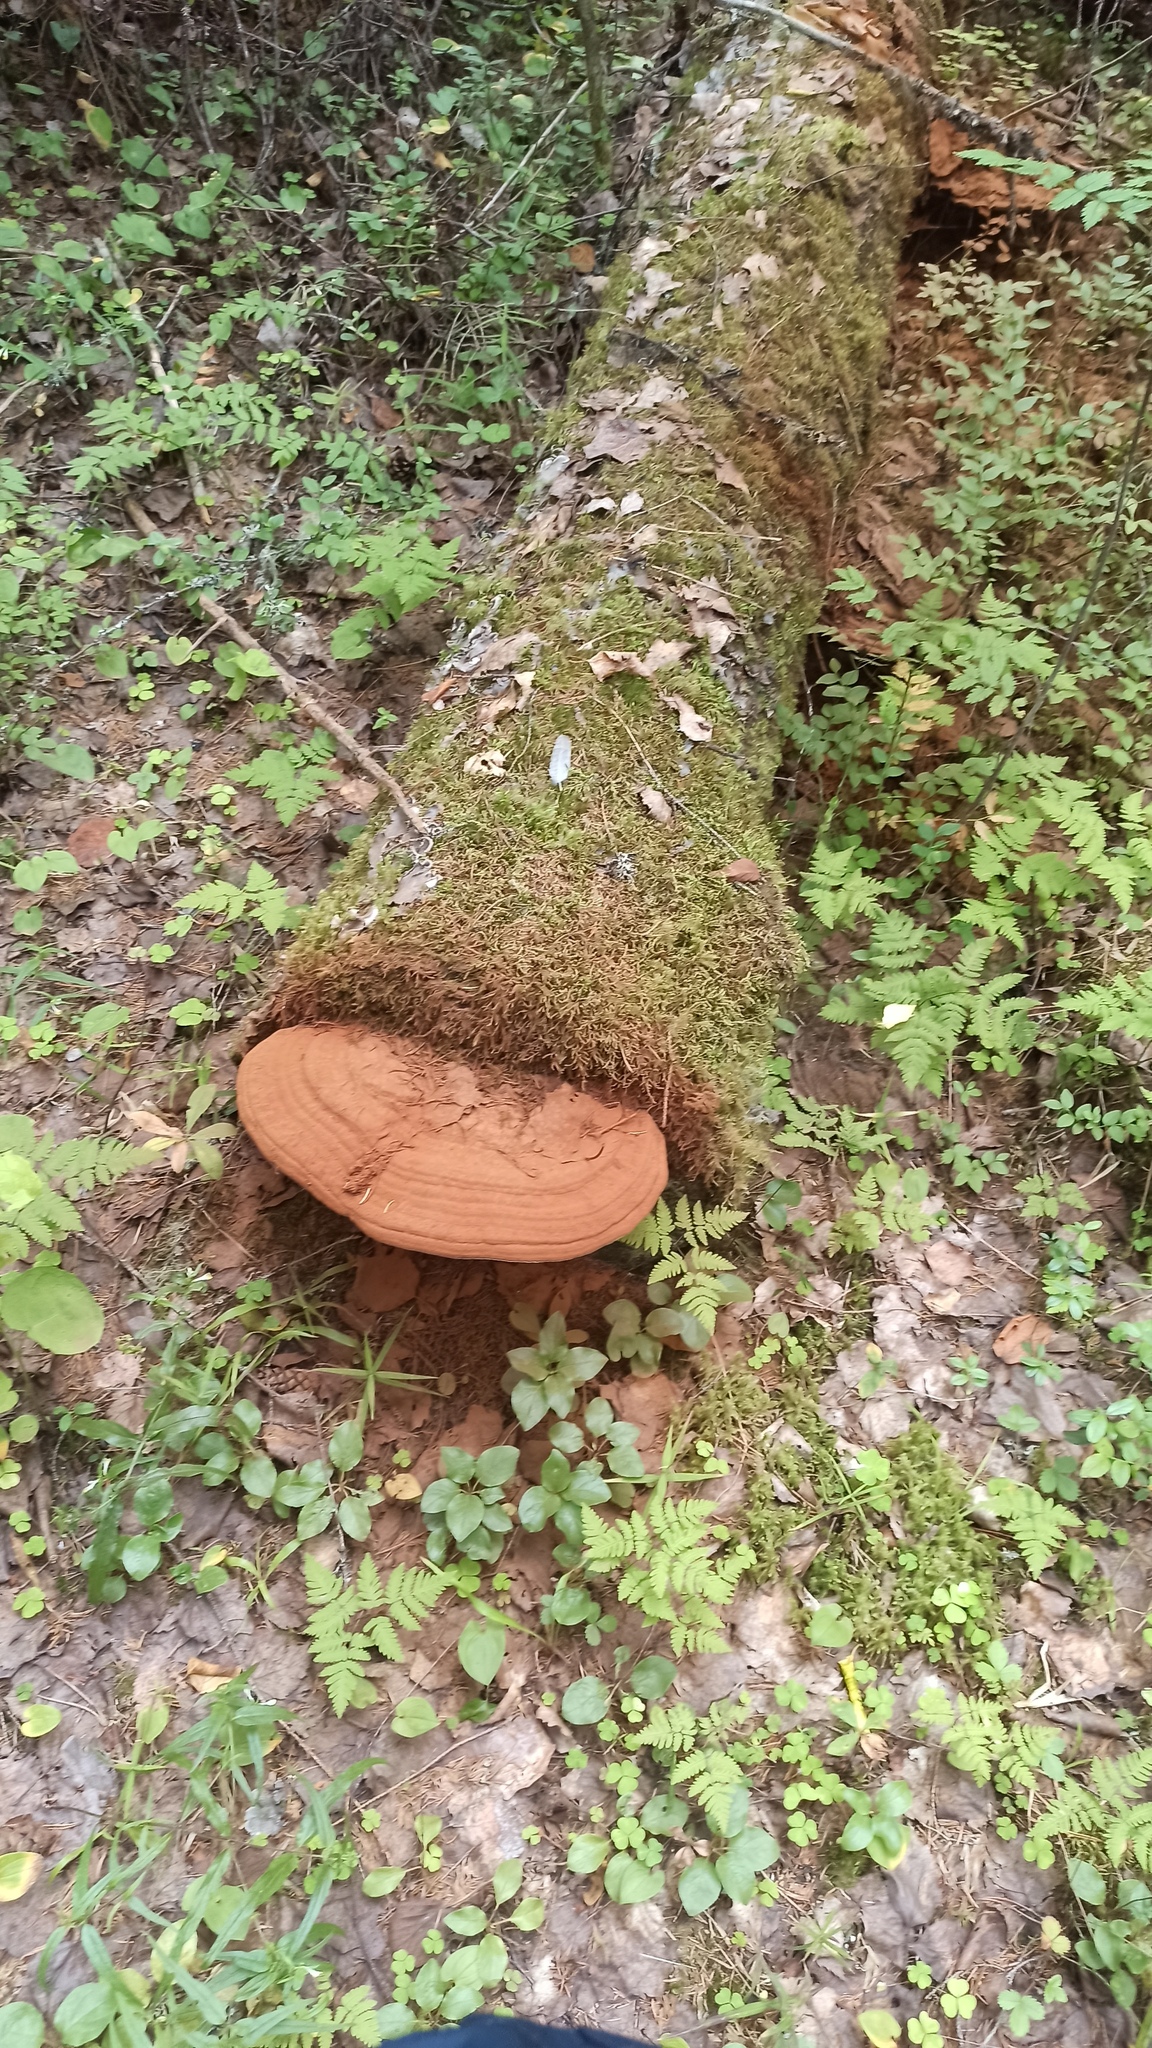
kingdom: Fungi
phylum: Basidiomycota
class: Agaricomycetes
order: Polyporales
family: Polyporaceae
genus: Ganoderma
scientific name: Ganoderma applanatum
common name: Artist's bracket
